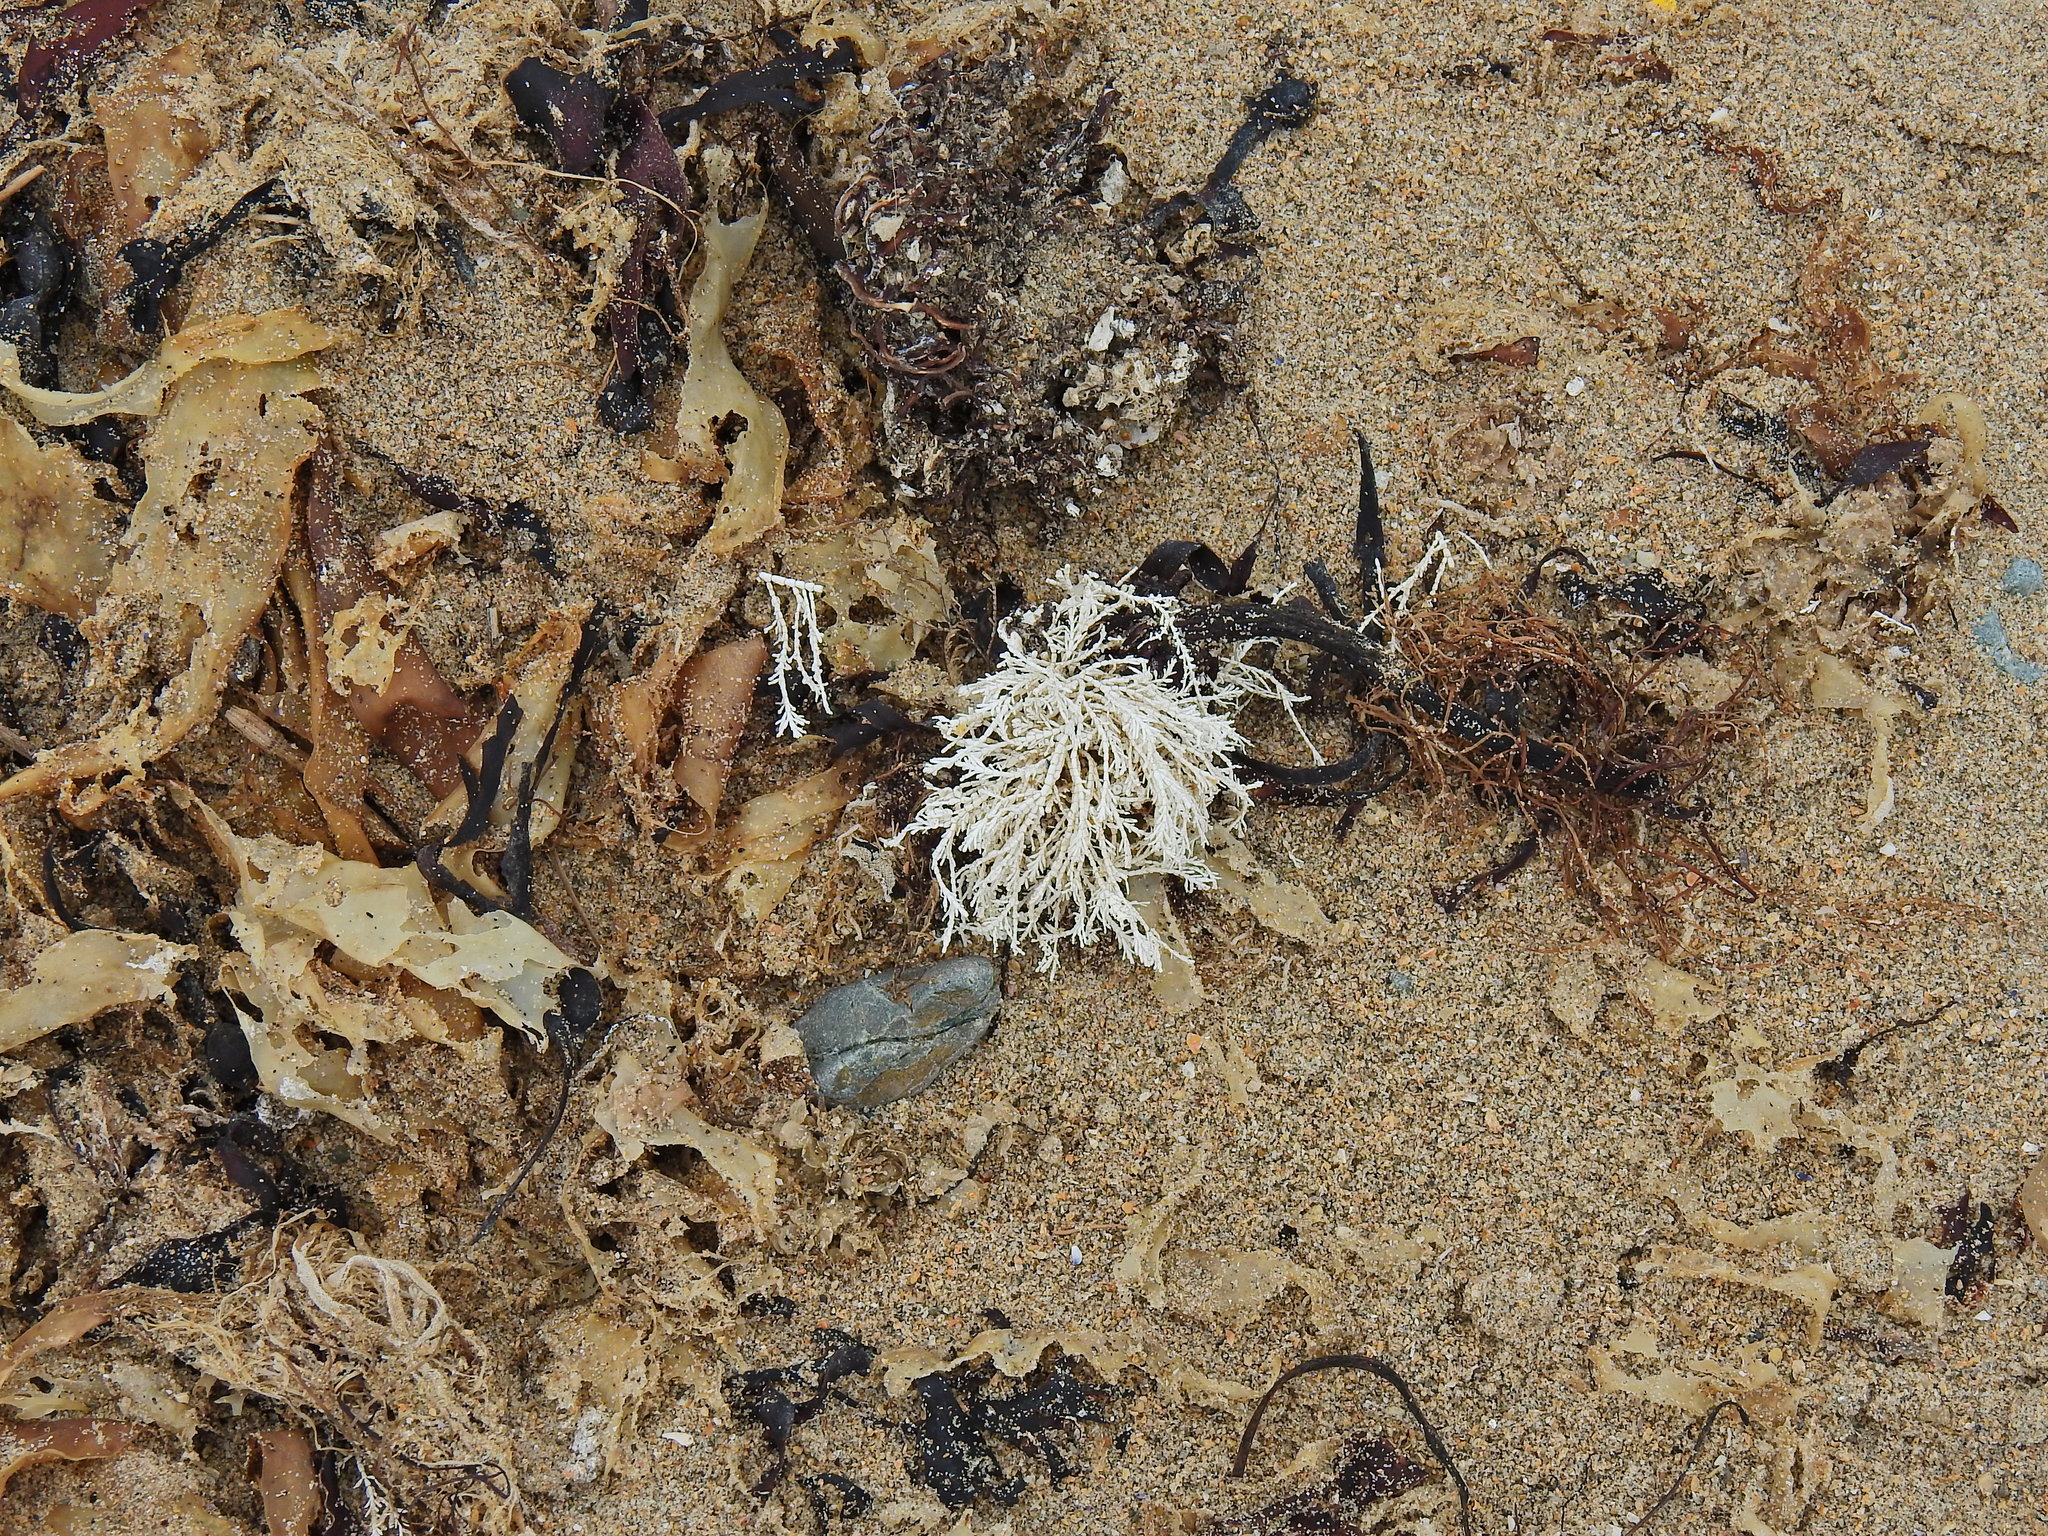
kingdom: Plantae
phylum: Rhodophyta
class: Florideophyceae
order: Corallinales
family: Corallinaceae
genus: Corallina
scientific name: Corallina officinalis
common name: Coral weed
